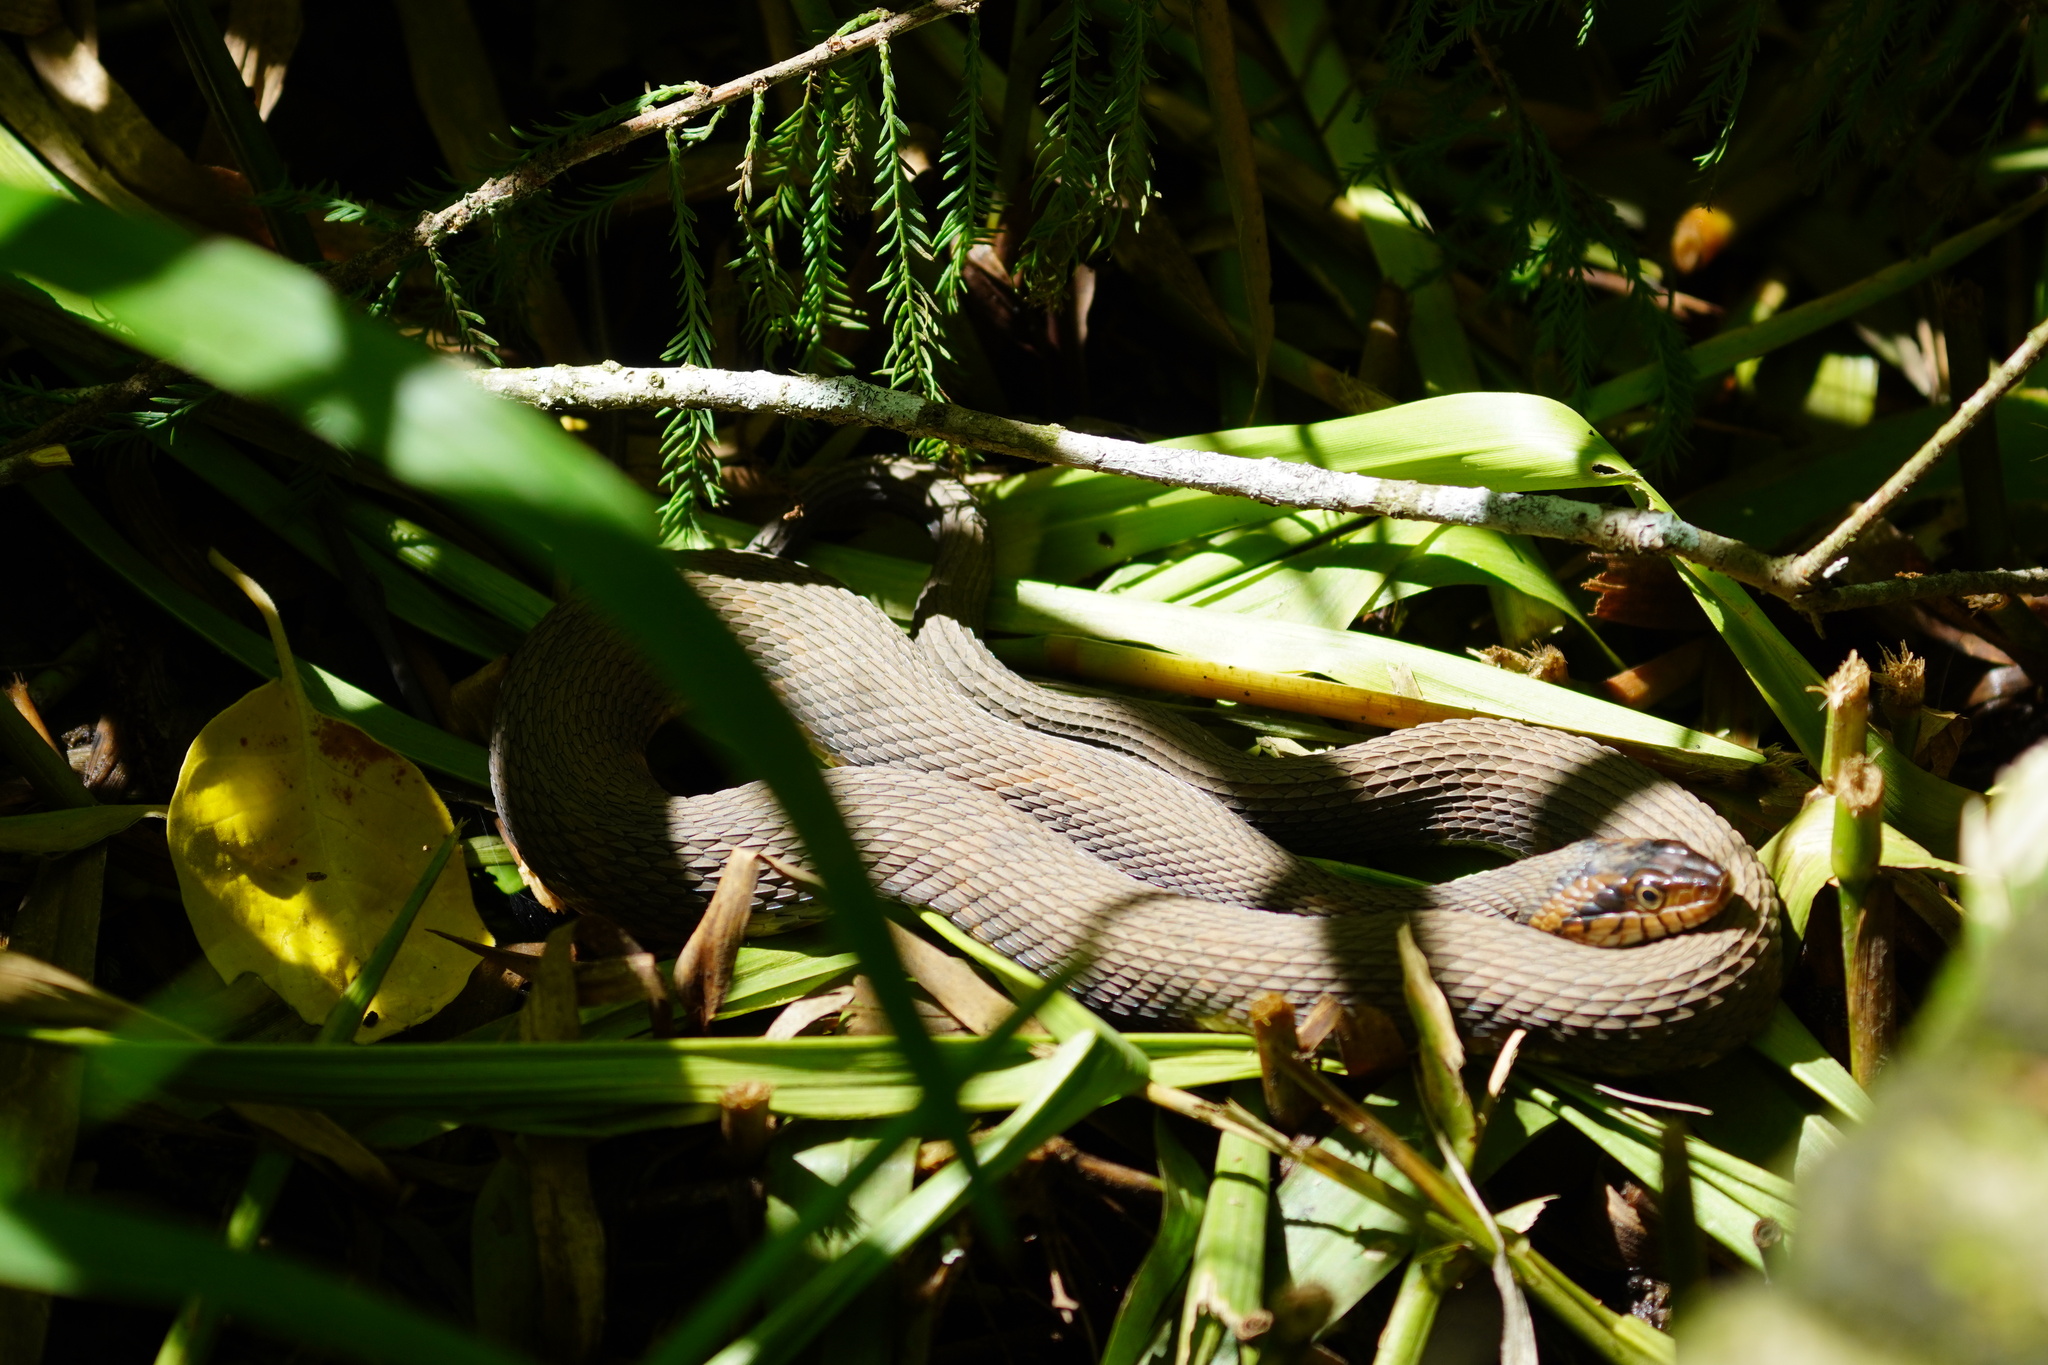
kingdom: Animalia
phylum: Chordata
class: Squamata
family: Colubridae
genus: Nerodia
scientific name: Nerodia fasciata
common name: Southern water snake
